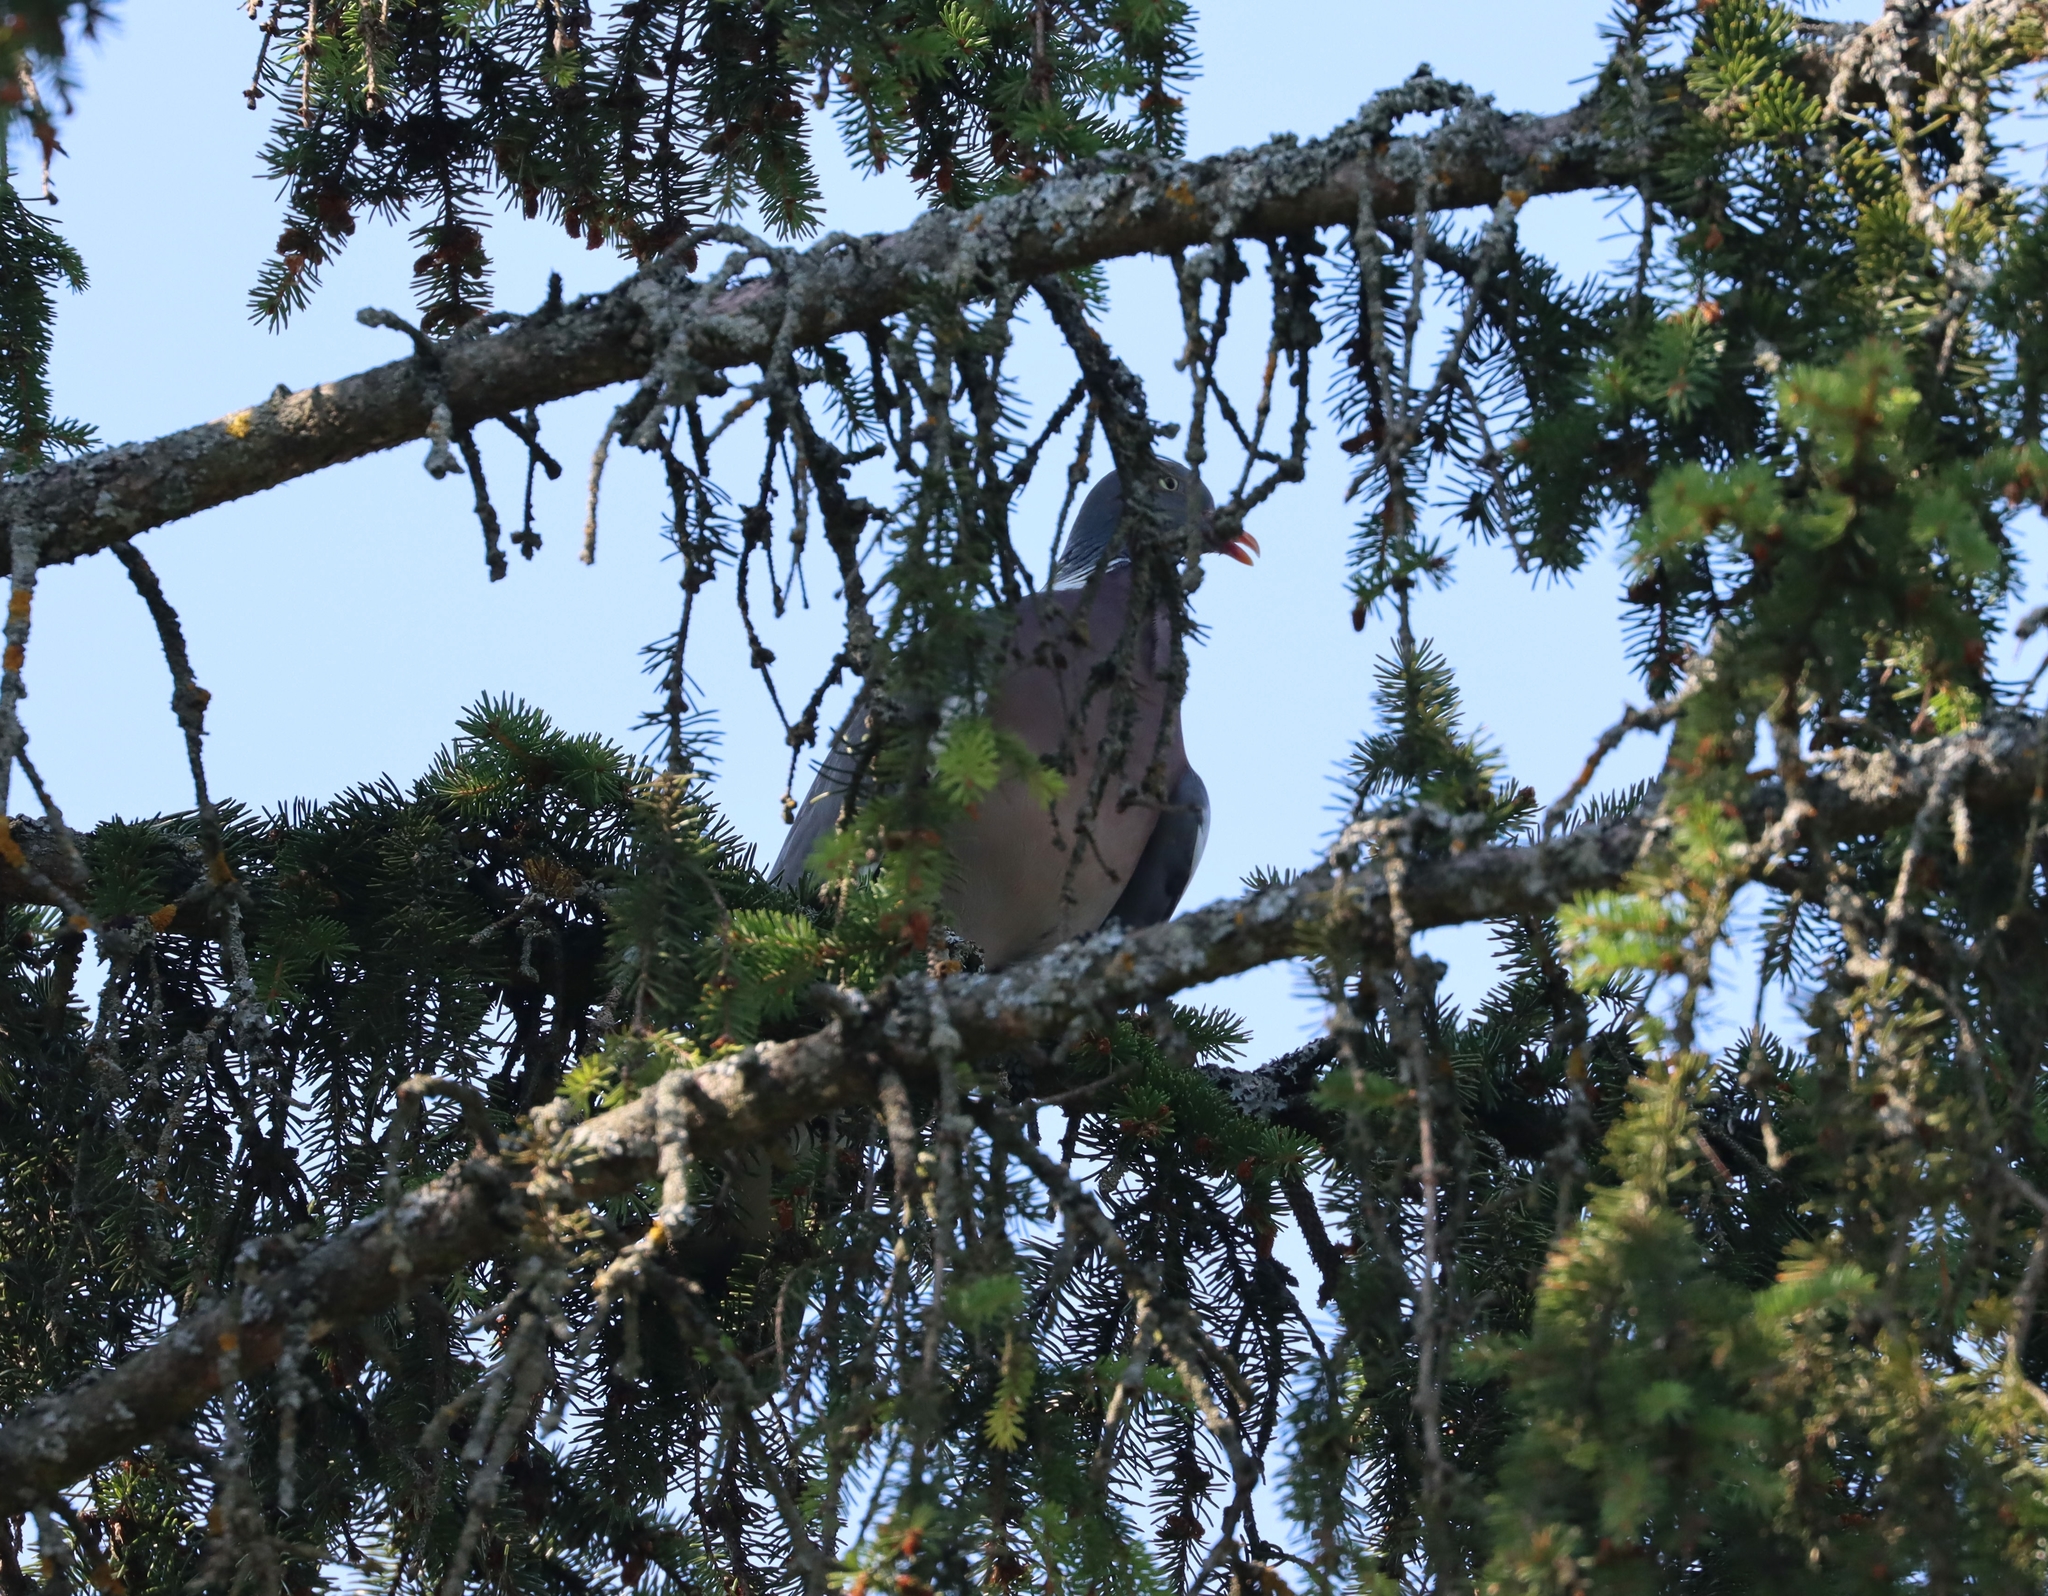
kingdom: Animalia
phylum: Chordata
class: Aves
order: Columbiformes
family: Columbidae
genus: Columba
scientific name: Columba palumbus
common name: Common wood pigeon
